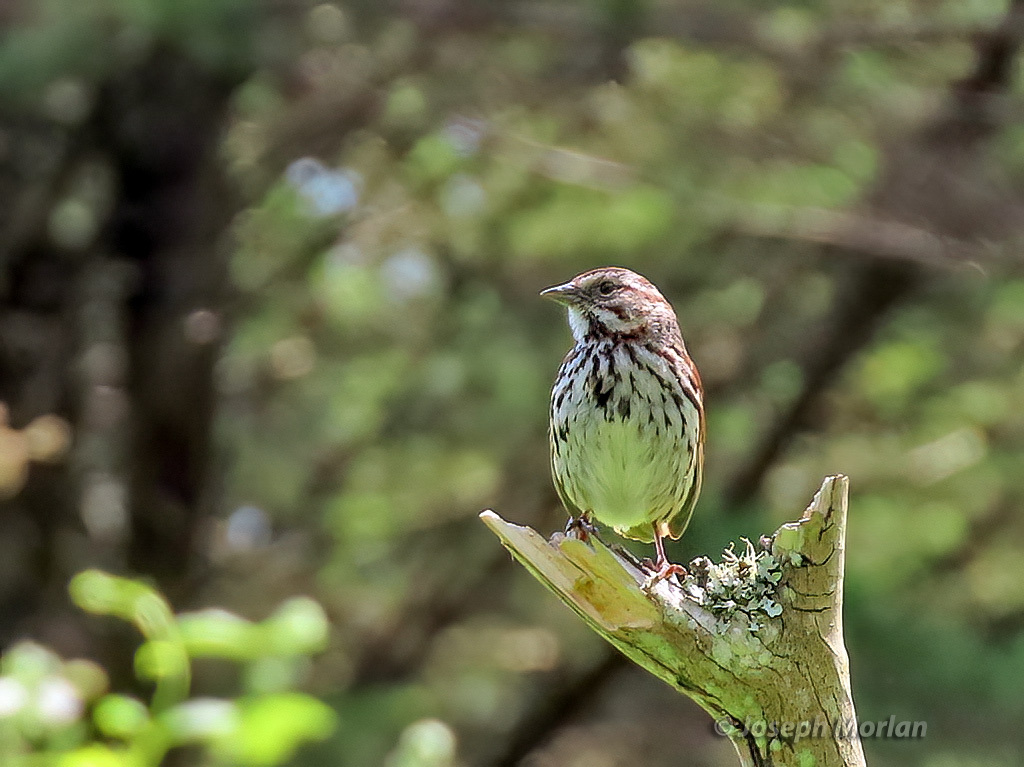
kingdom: Animalia
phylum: Chordata
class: Aves
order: Passeriformes
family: Passerellidae
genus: Melospiza
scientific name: Melospiza melodia
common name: Song sparrow
